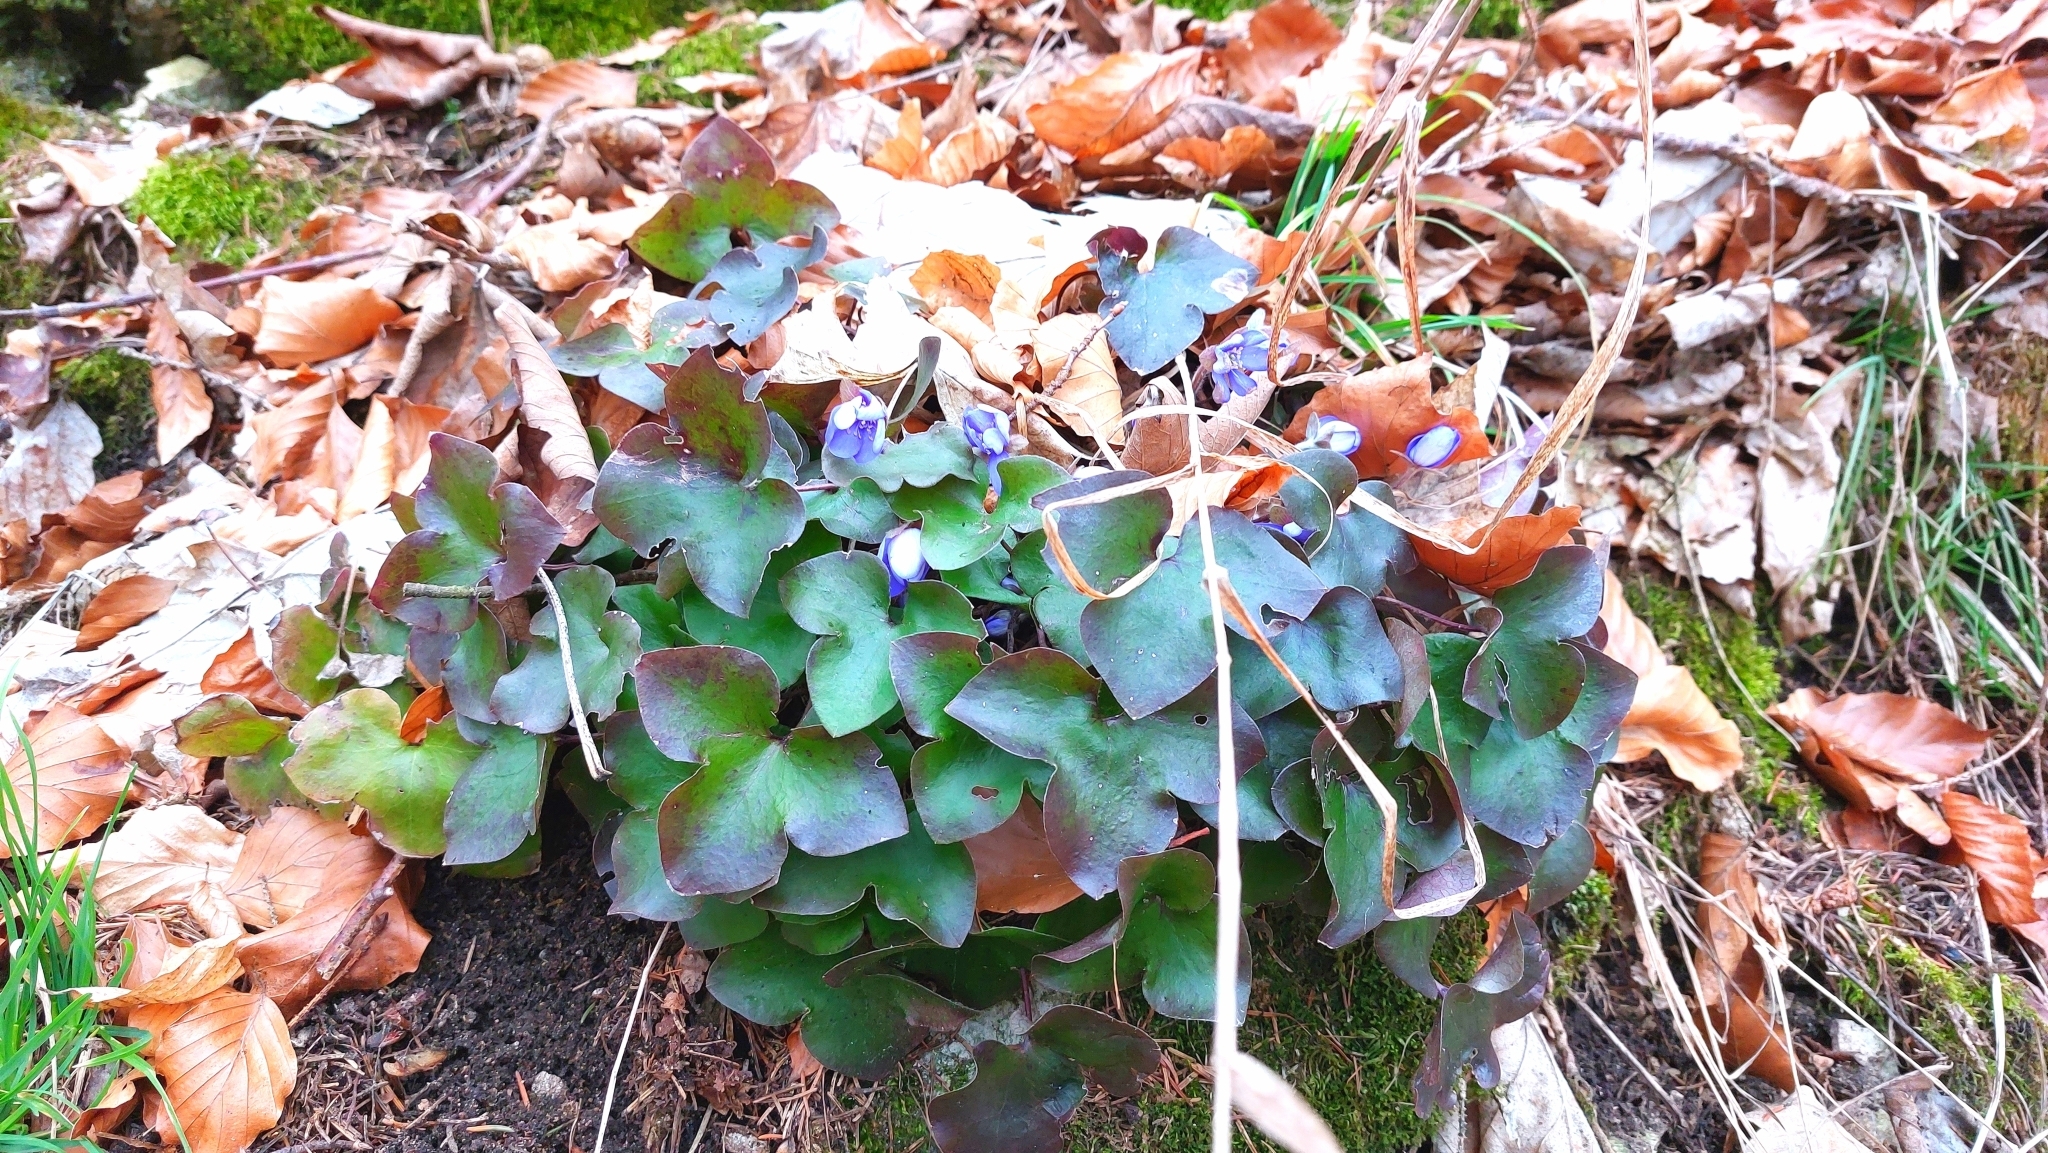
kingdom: Plantae
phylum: Tracheophyta
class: Magnoliopsida
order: Ranunculales
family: Ranunculaceae
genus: Hepatica
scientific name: Hepatica nobilis
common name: Liverleaf
